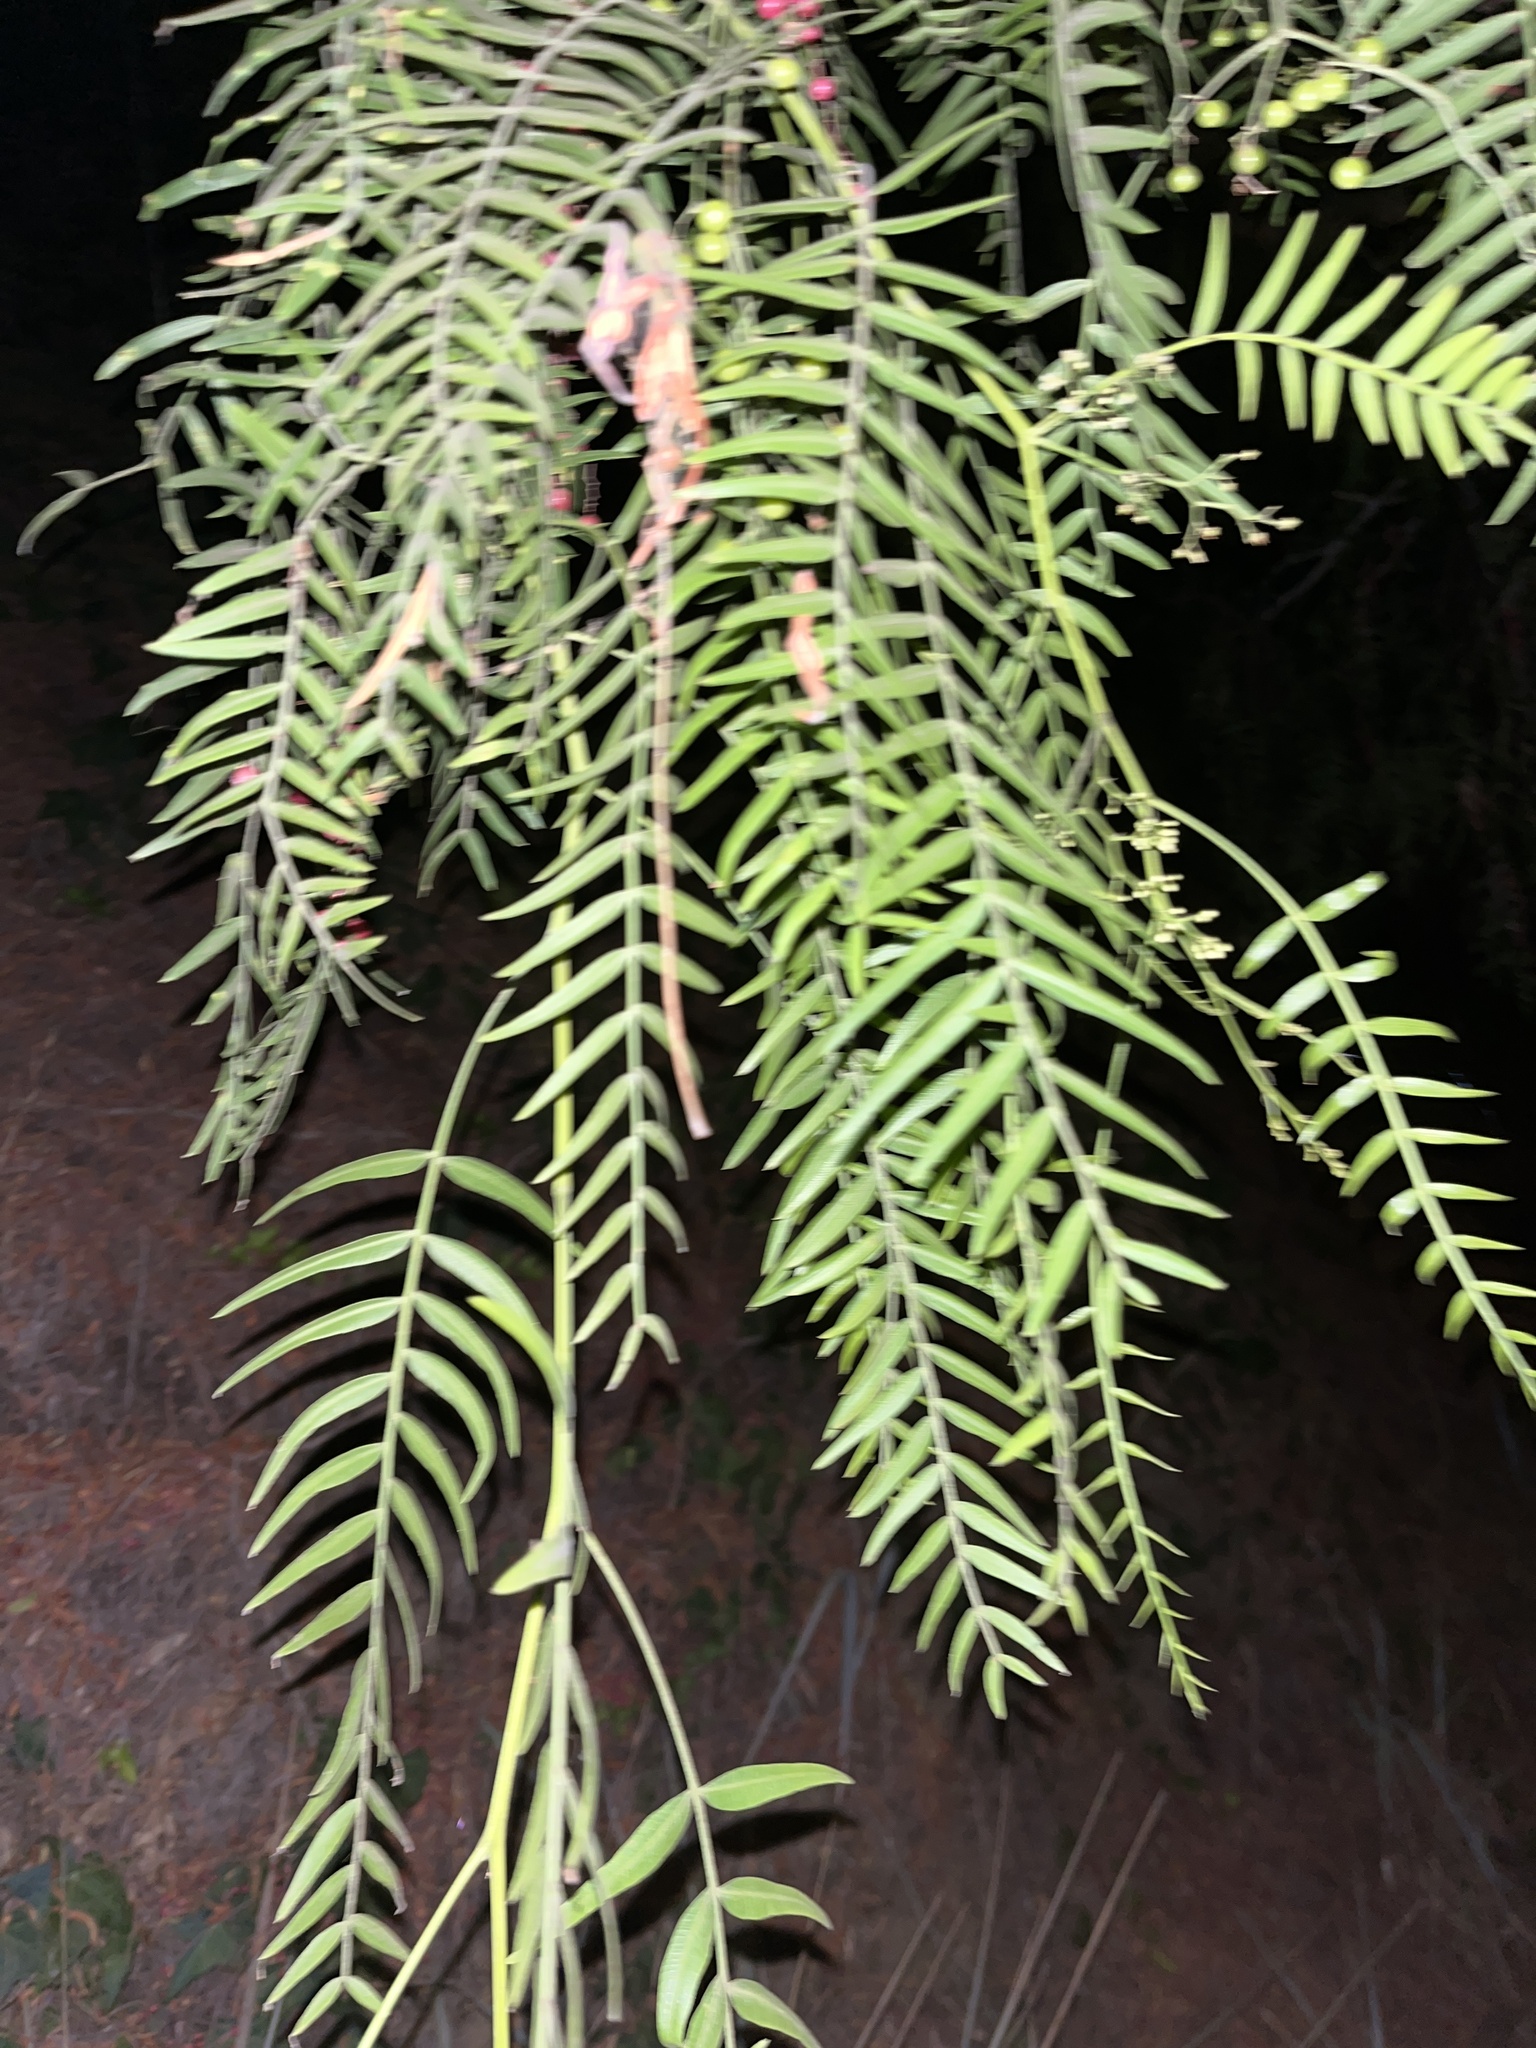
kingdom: Plantae
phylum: Tracheophyta
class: Magnoliopsida
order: Sapindales
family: Anacardiaceae
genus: Schinus
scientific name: Schinus molle
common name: Peruvian peppertree
